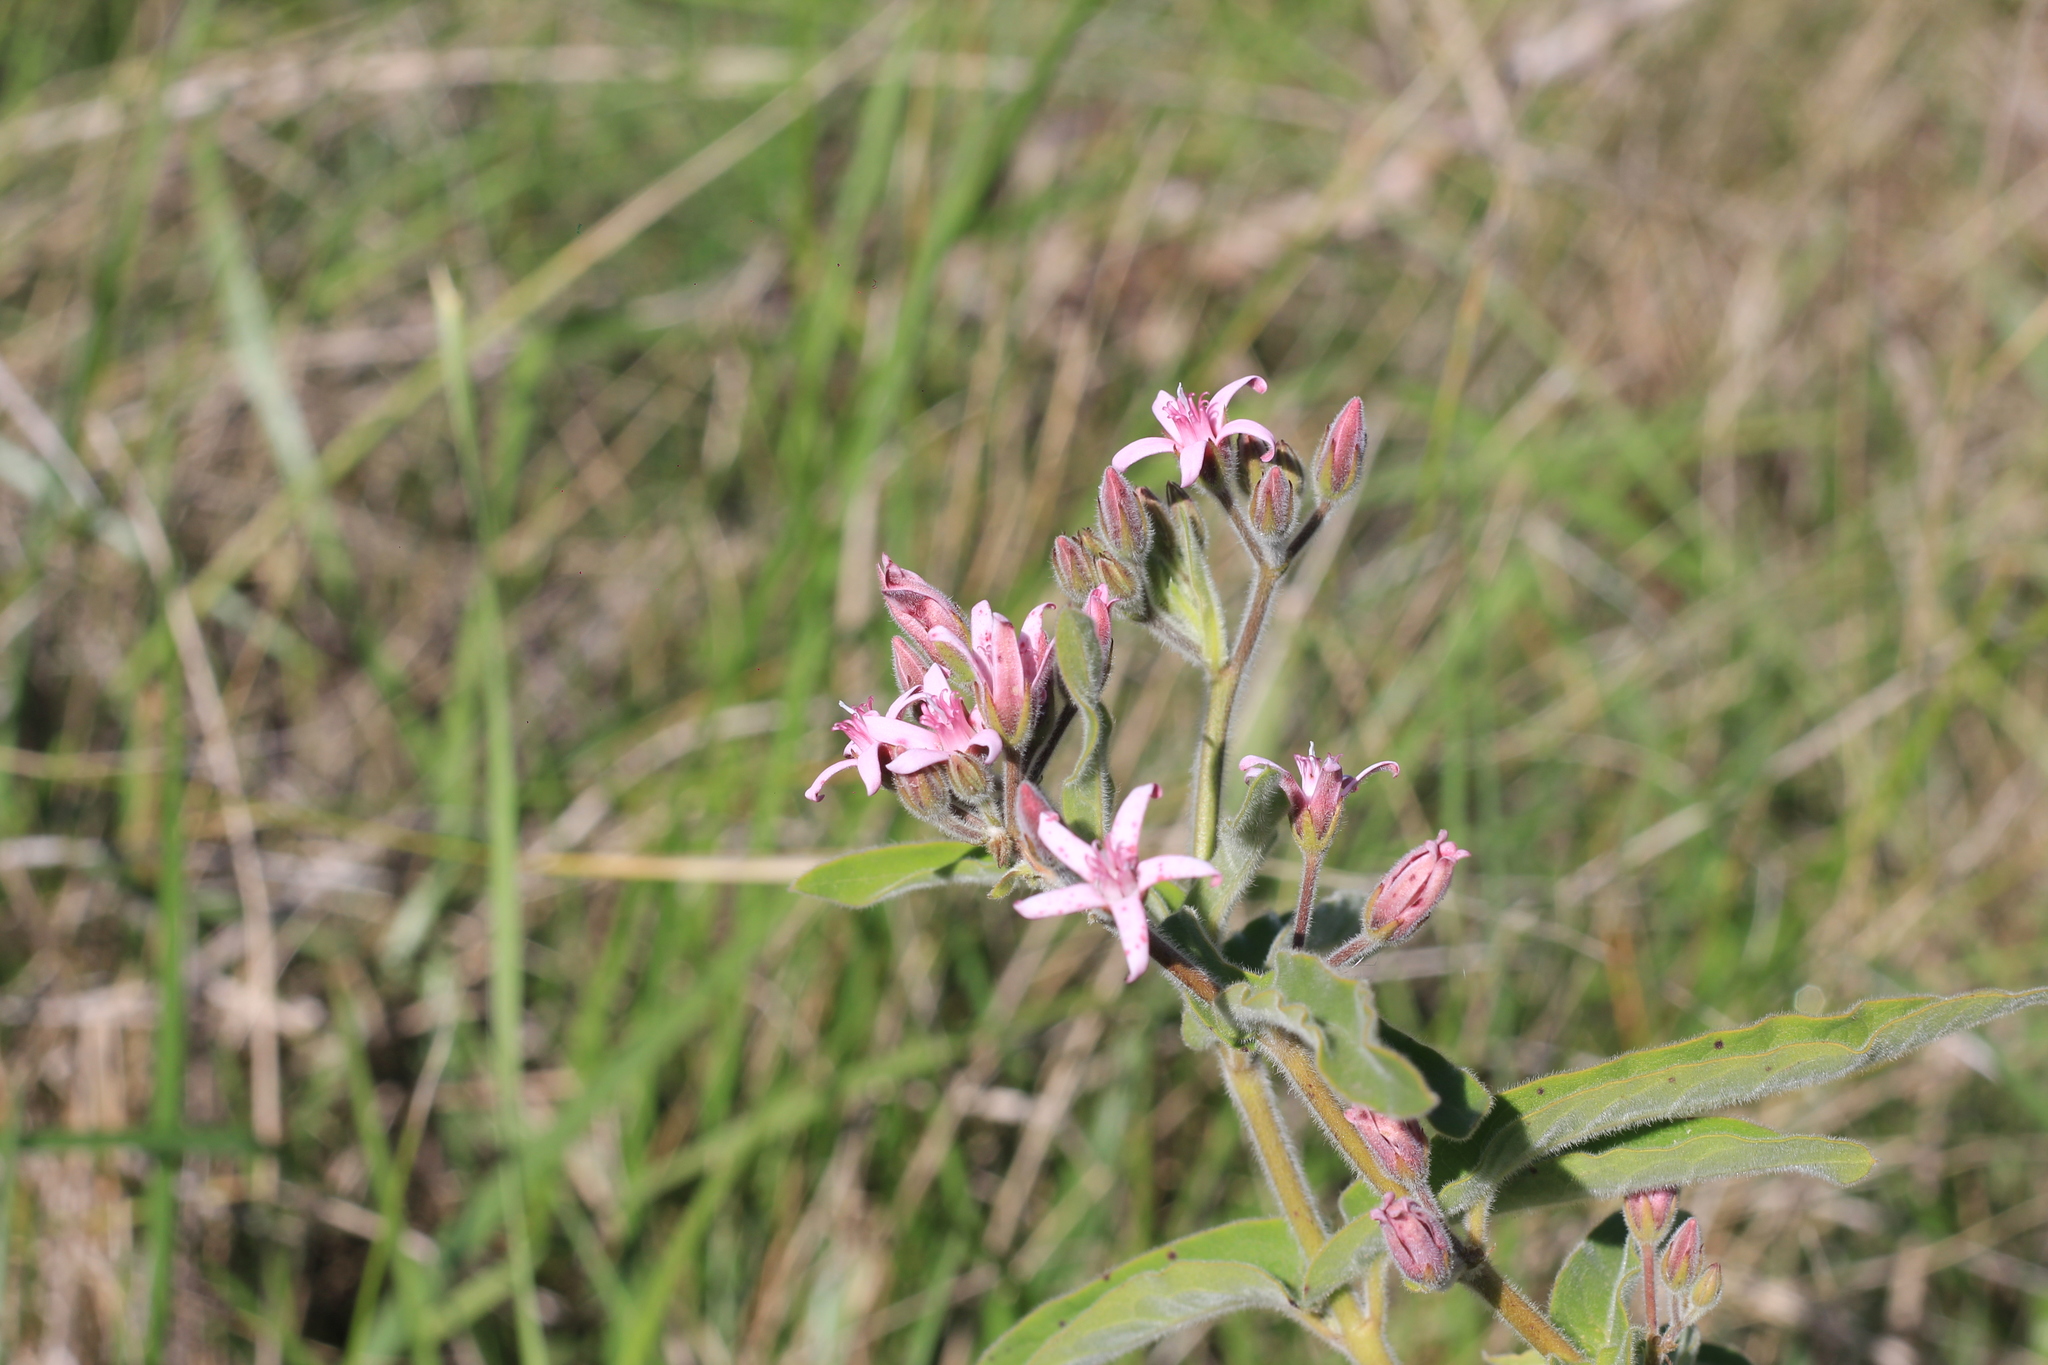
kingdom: Plantae
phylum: Tracheophyta
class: Magnoliopsida
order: Gentianales
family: Apocynaceae
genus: Oxypetalum
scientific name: Oxypetalum solanoides
